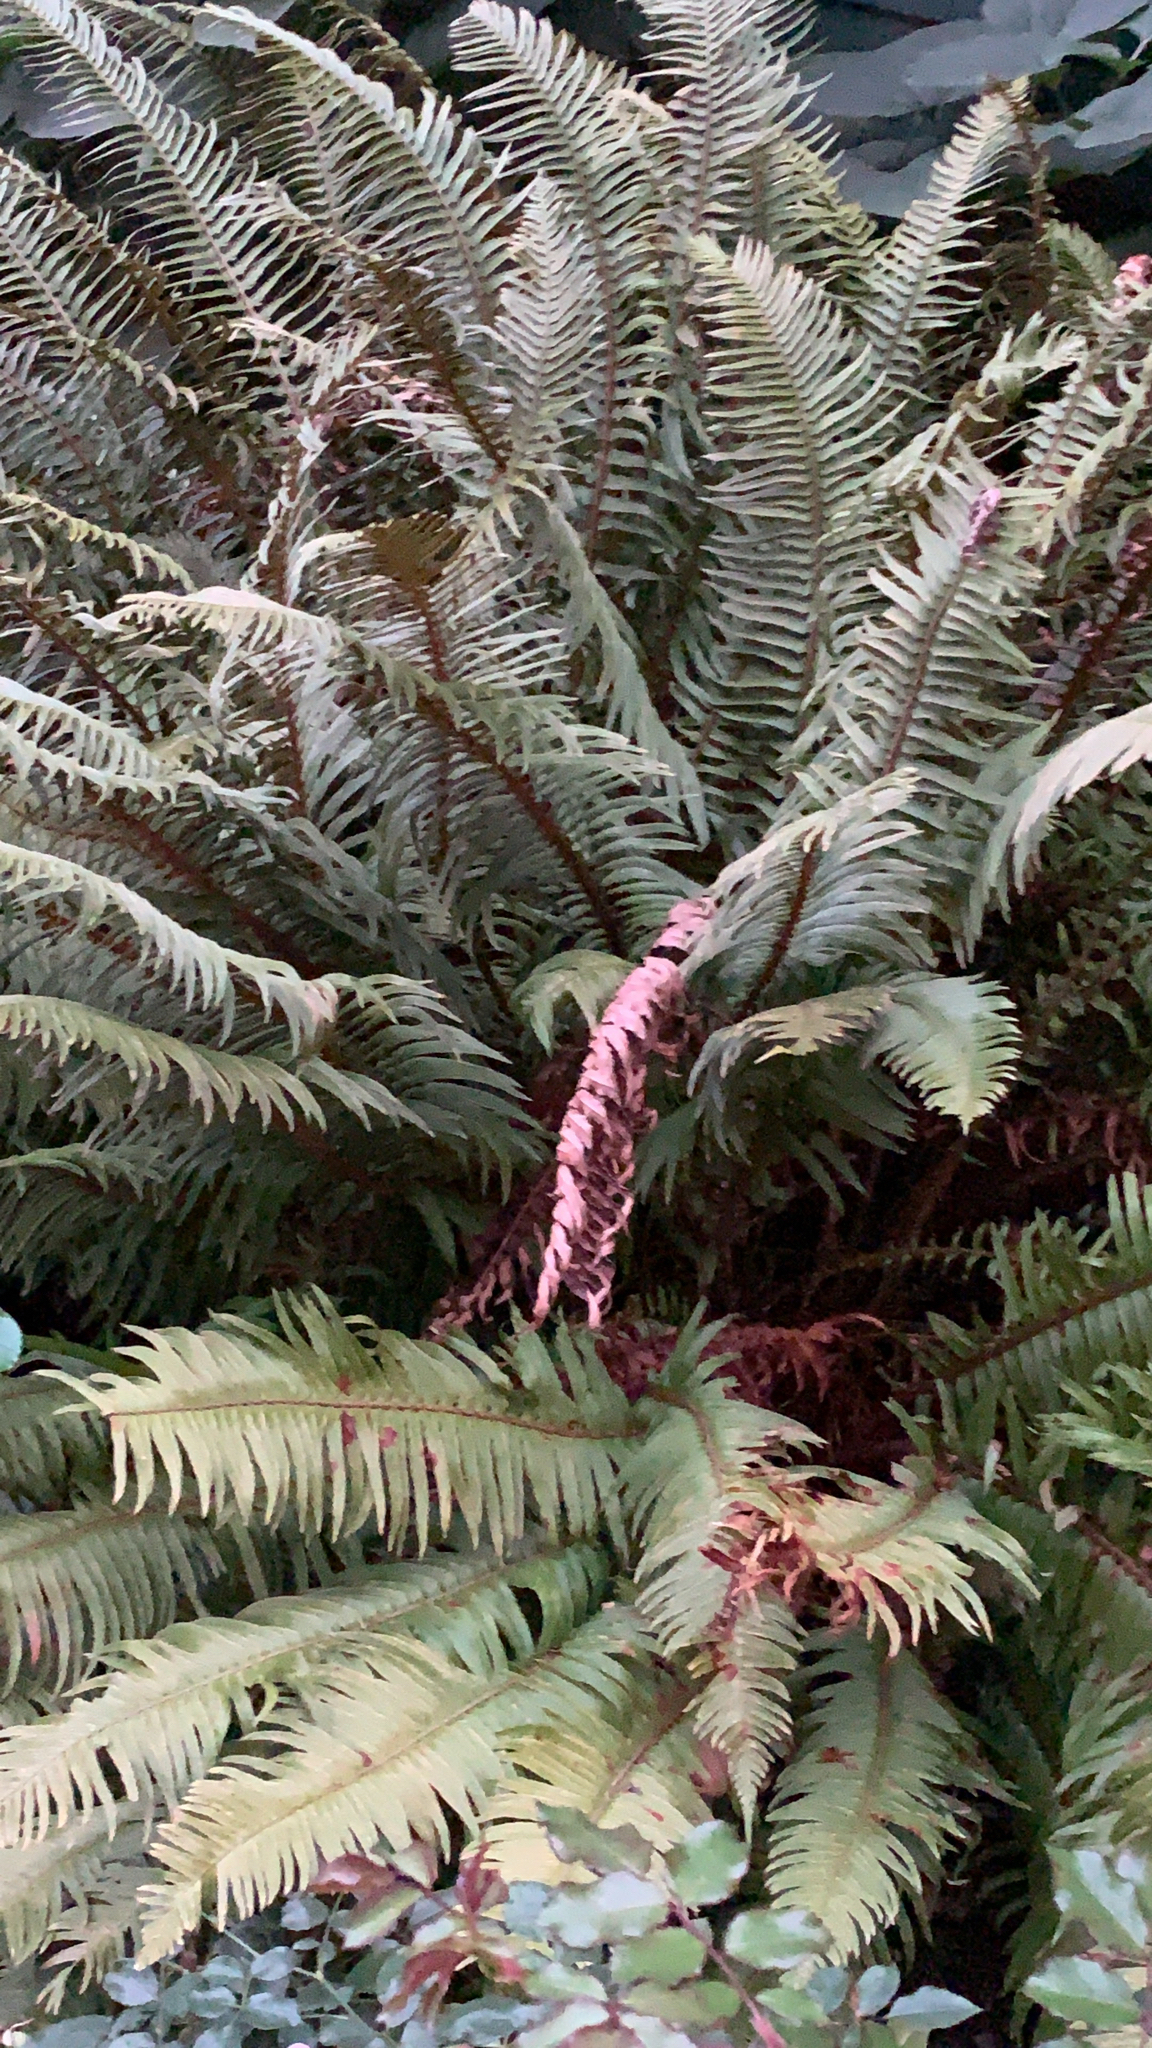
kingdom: Plantae
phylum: Tracheophyta
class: Polypodiopsida
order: Polypodiales
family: Dryopteridaceae
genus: Polystichum
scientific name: Polystichum munitum
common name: Western sword-fern
